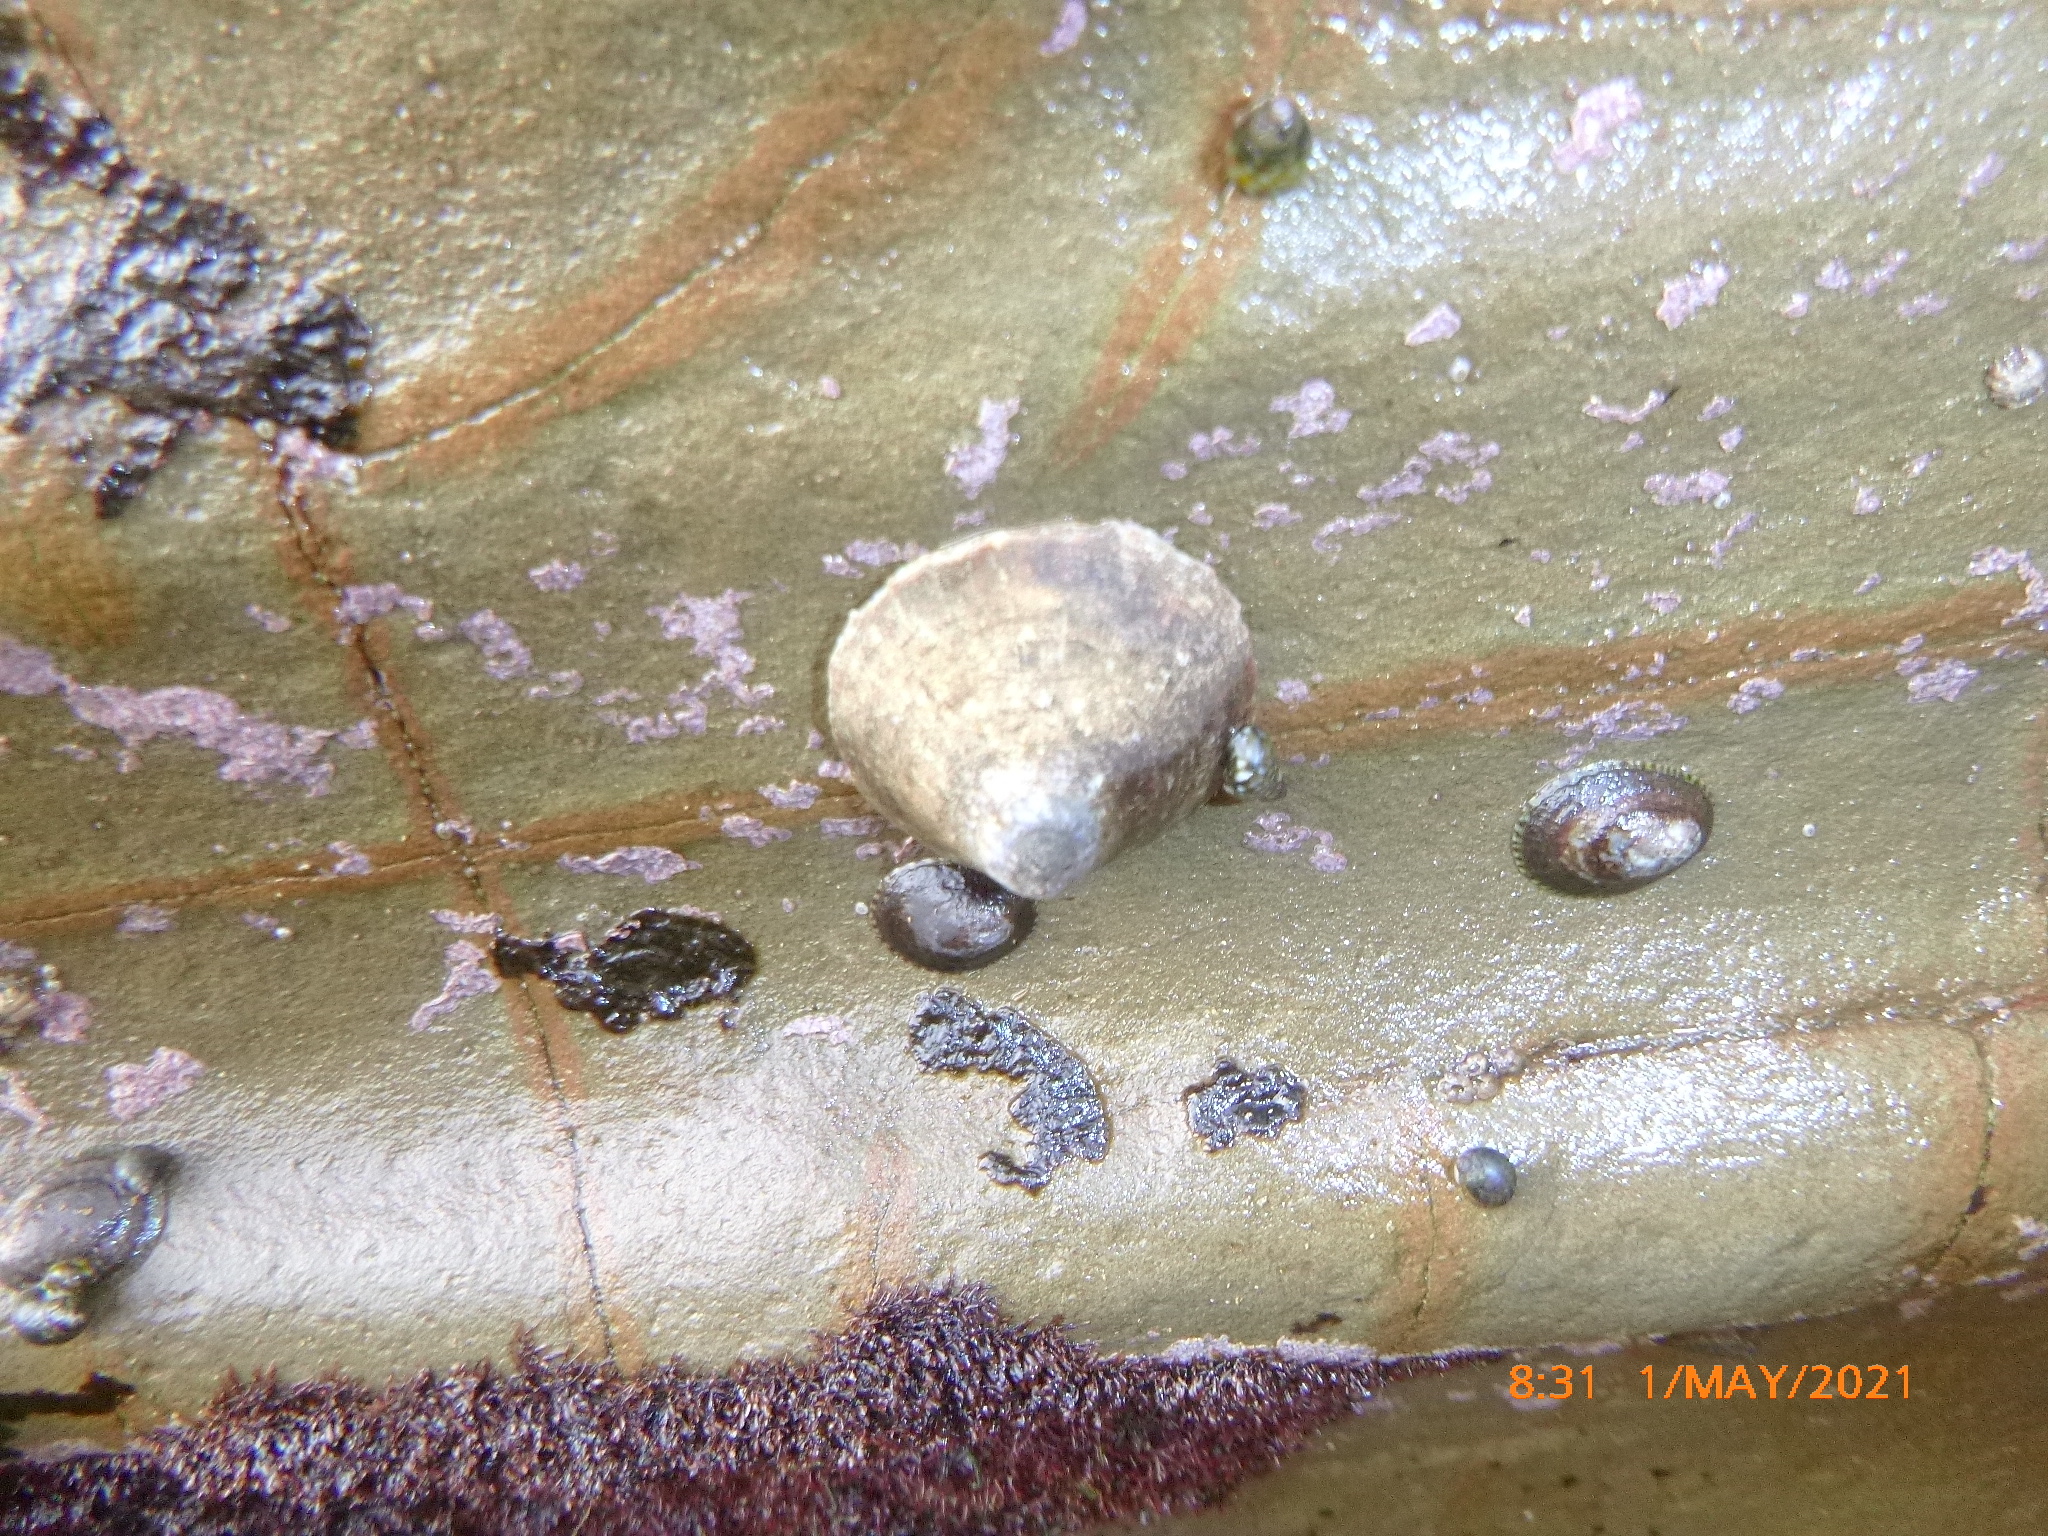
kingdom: Animalia
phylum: Mollusca
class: Gastropoda
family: Lottiidae
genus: Lottia
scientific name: Lottia gigantea
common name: Owl limpet
